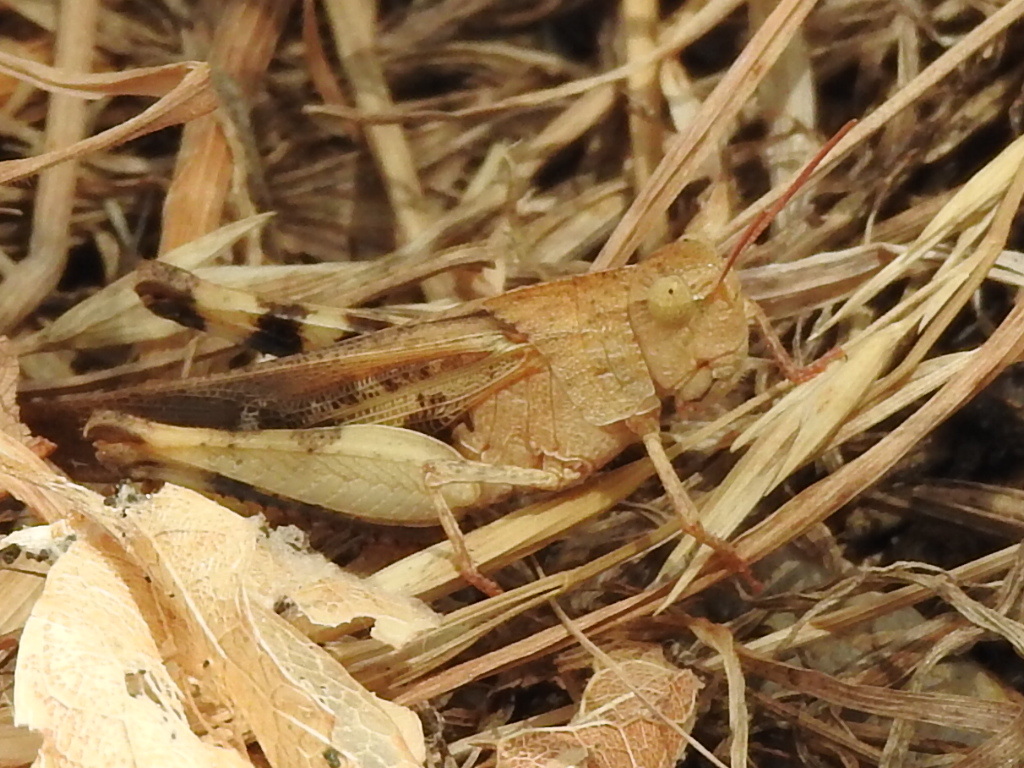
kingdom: Animalia
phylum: Arthropoda
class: Insecta
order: Orthoptera
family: Acrididae
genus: Chortophaga
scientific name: Chortophaga viridifasciata
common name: Green-striped grasshopper
